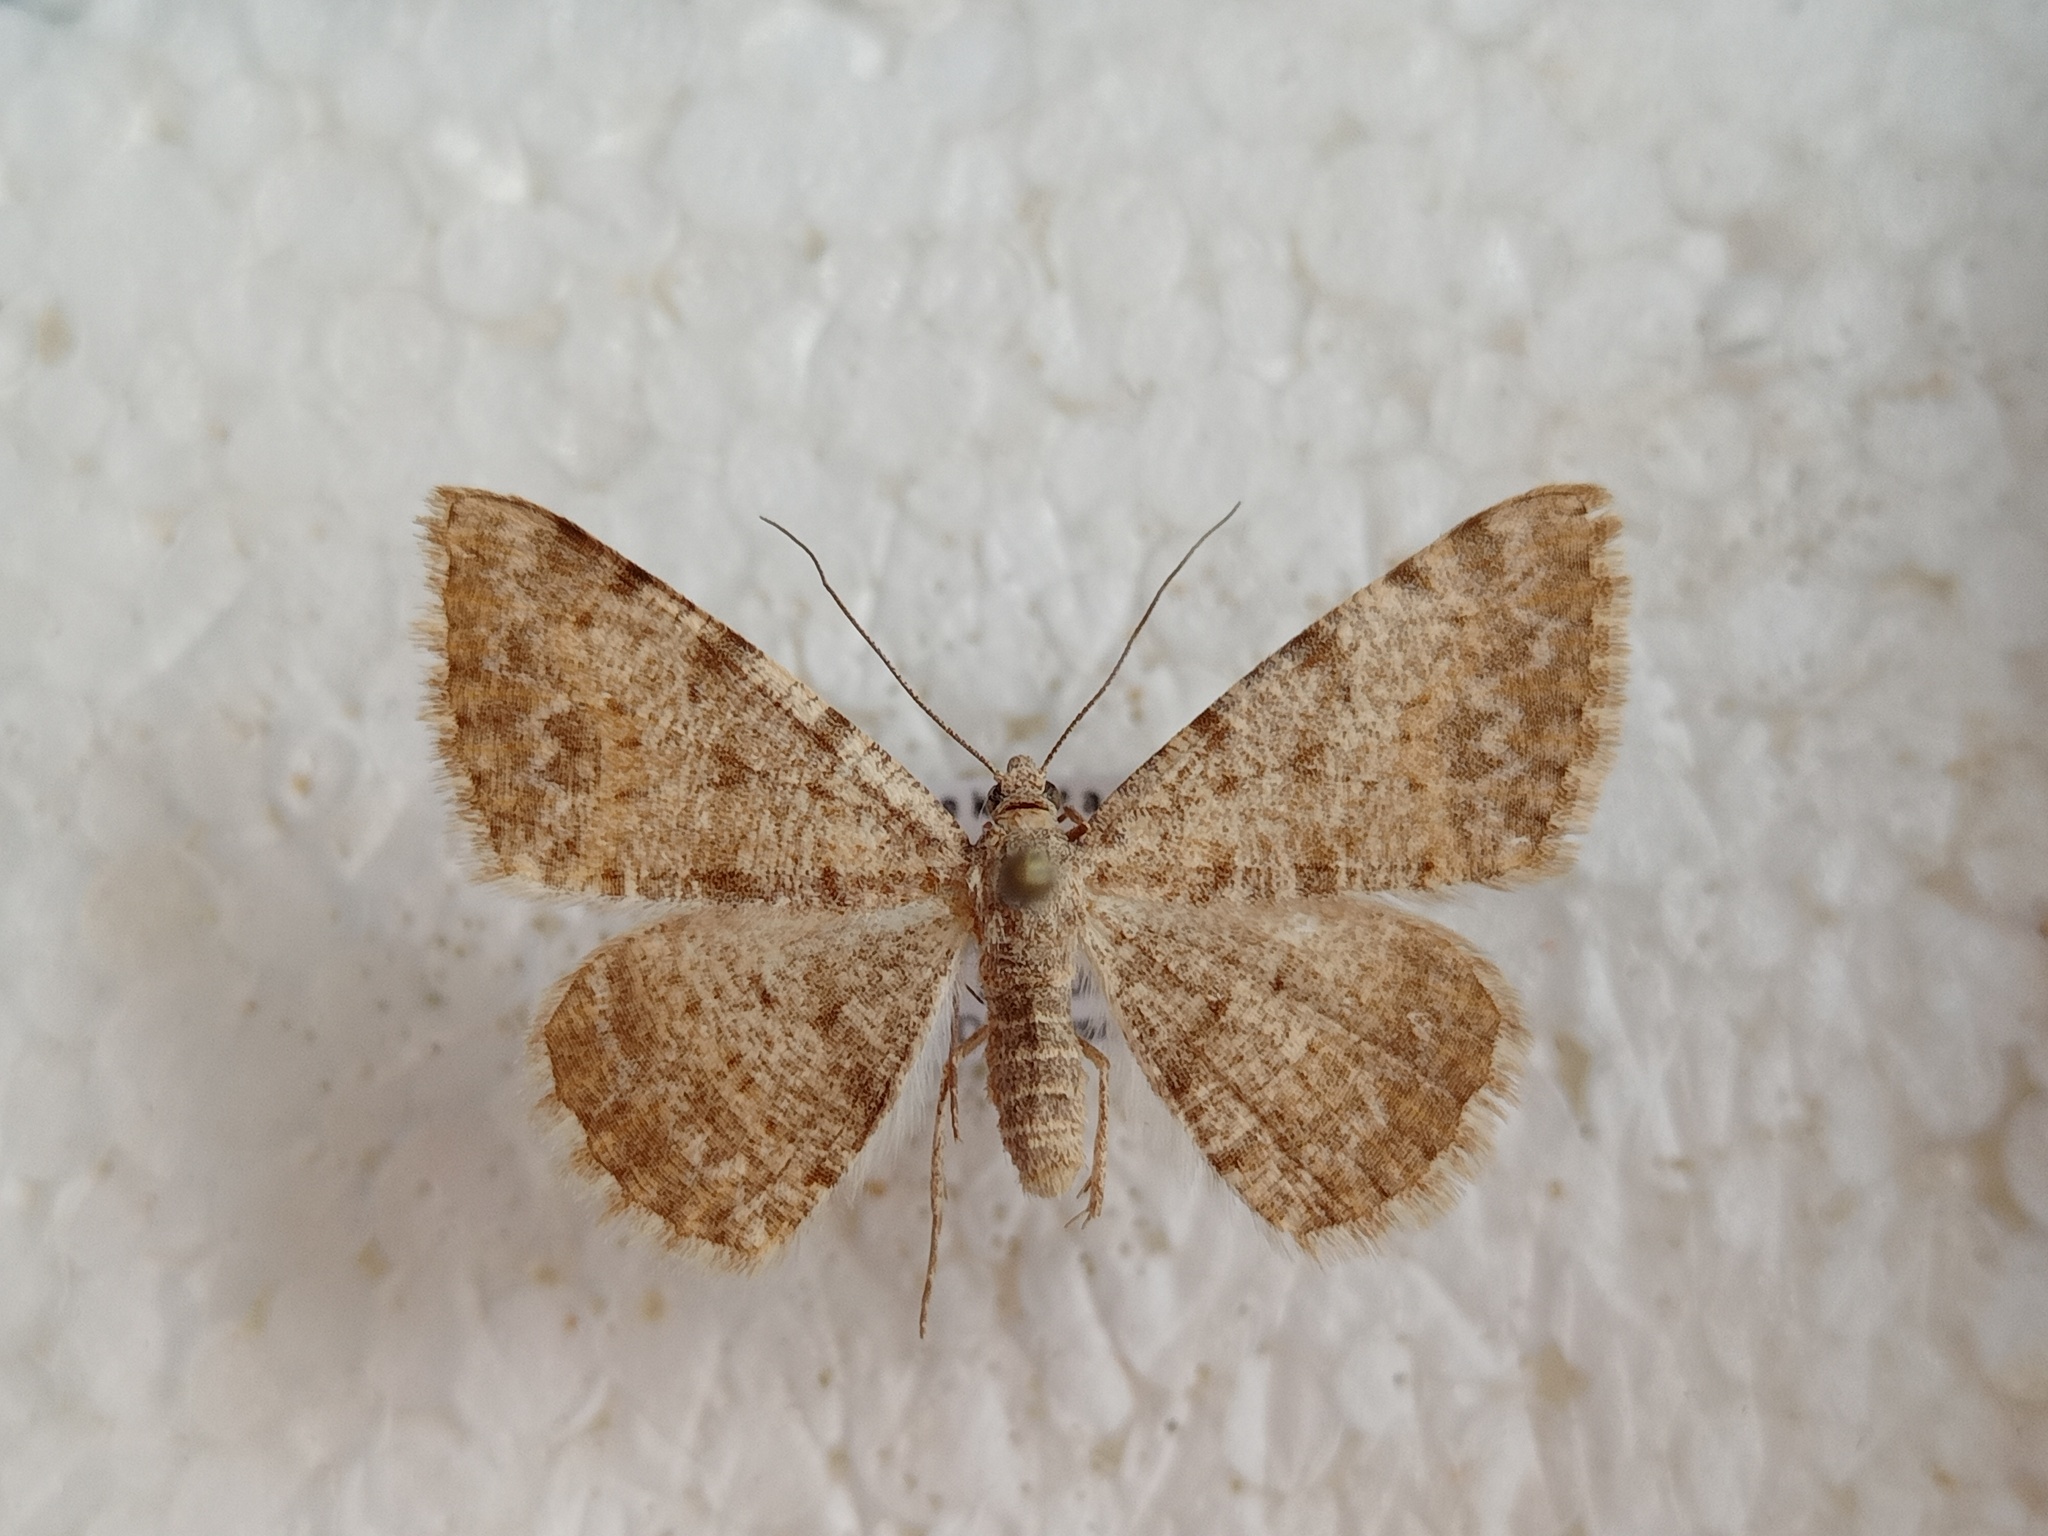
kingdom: Animalia
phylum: Arthropoda
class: Insecta
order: Lepidoptera
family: Geometridae
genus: Gnopharmia
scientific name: Gnopharmia colchidaria
